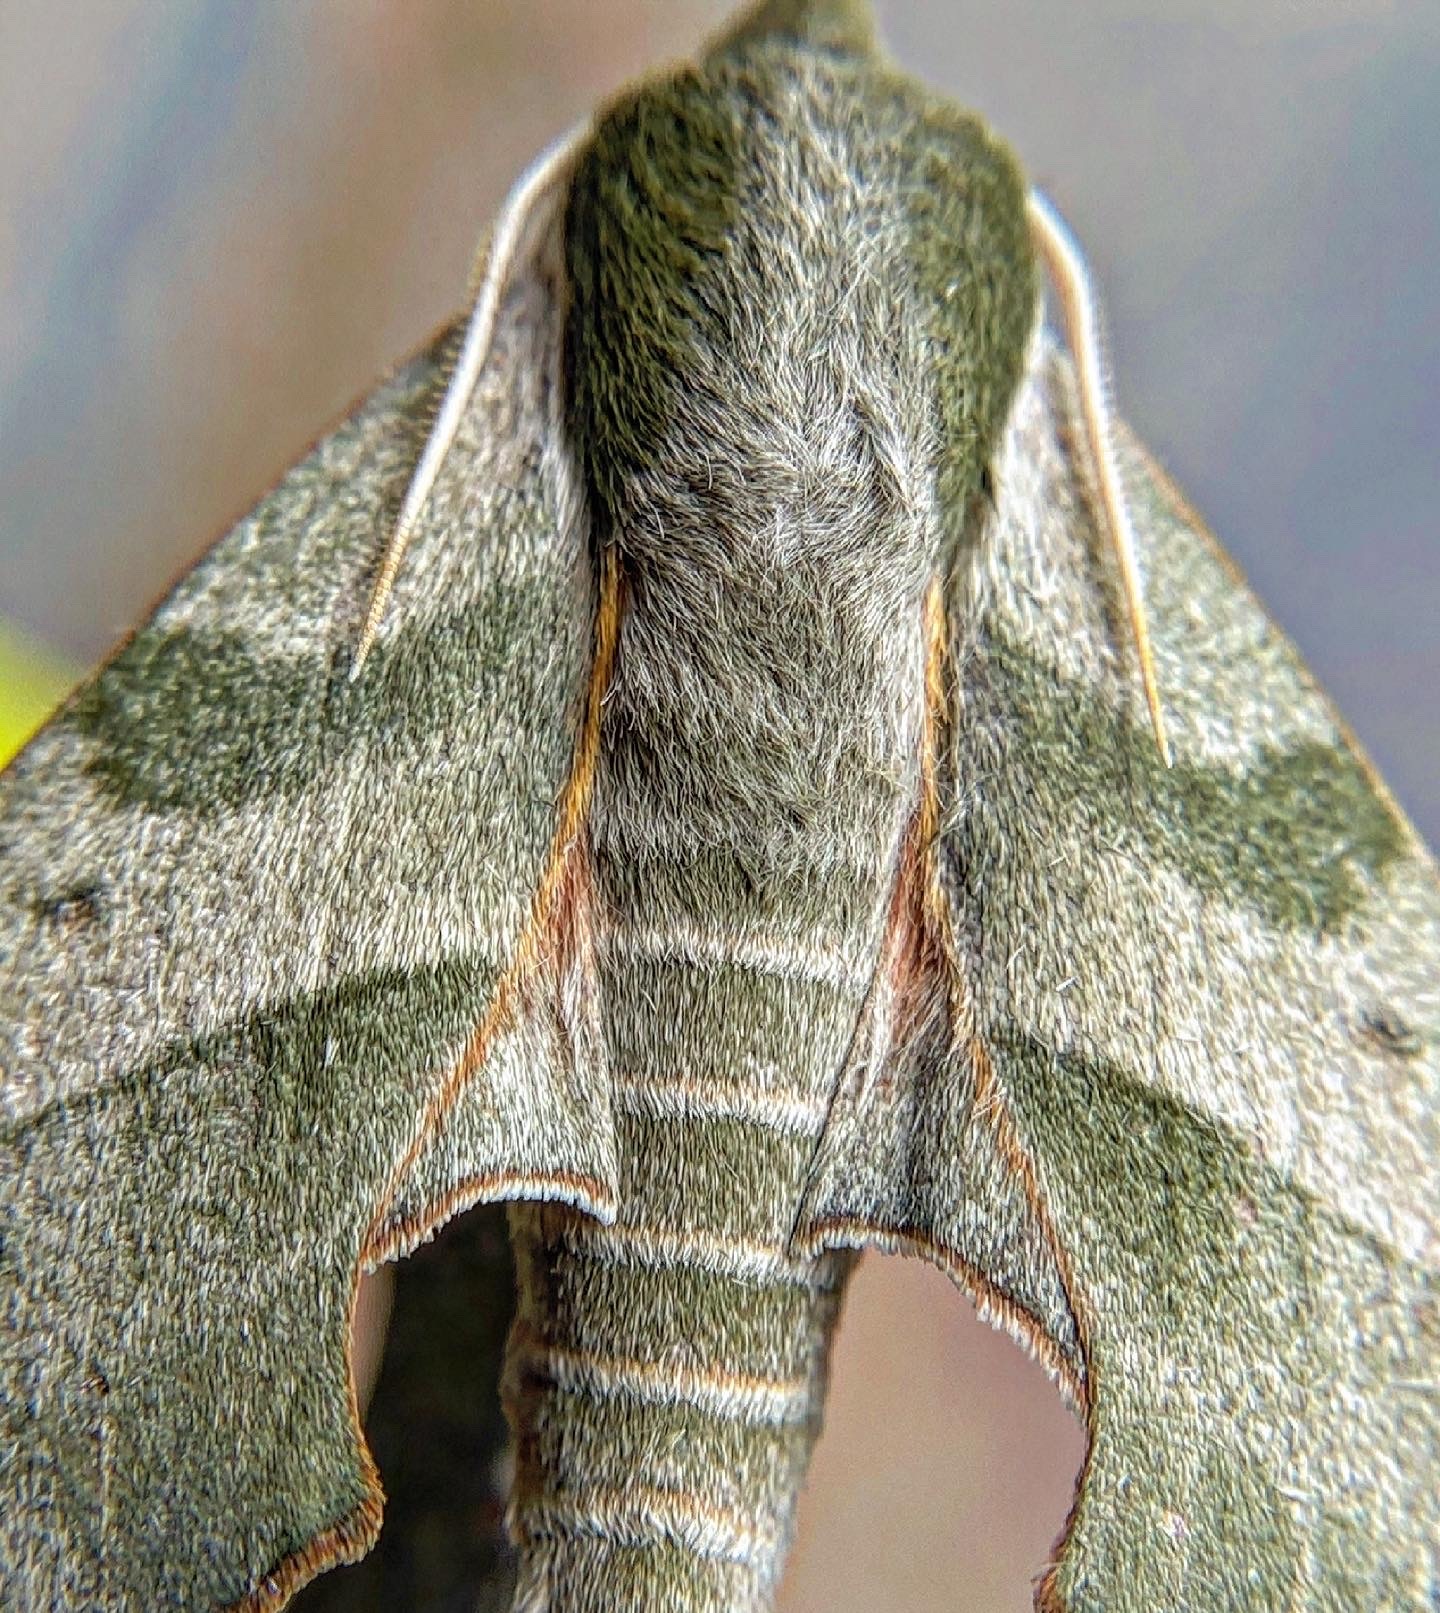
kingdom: Animalia
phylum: Arthropoda
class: Insecta
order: Lepidoptera
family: Sphingidae
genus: Darapsa
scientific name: Darapsa myron
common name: Hog sphinx
